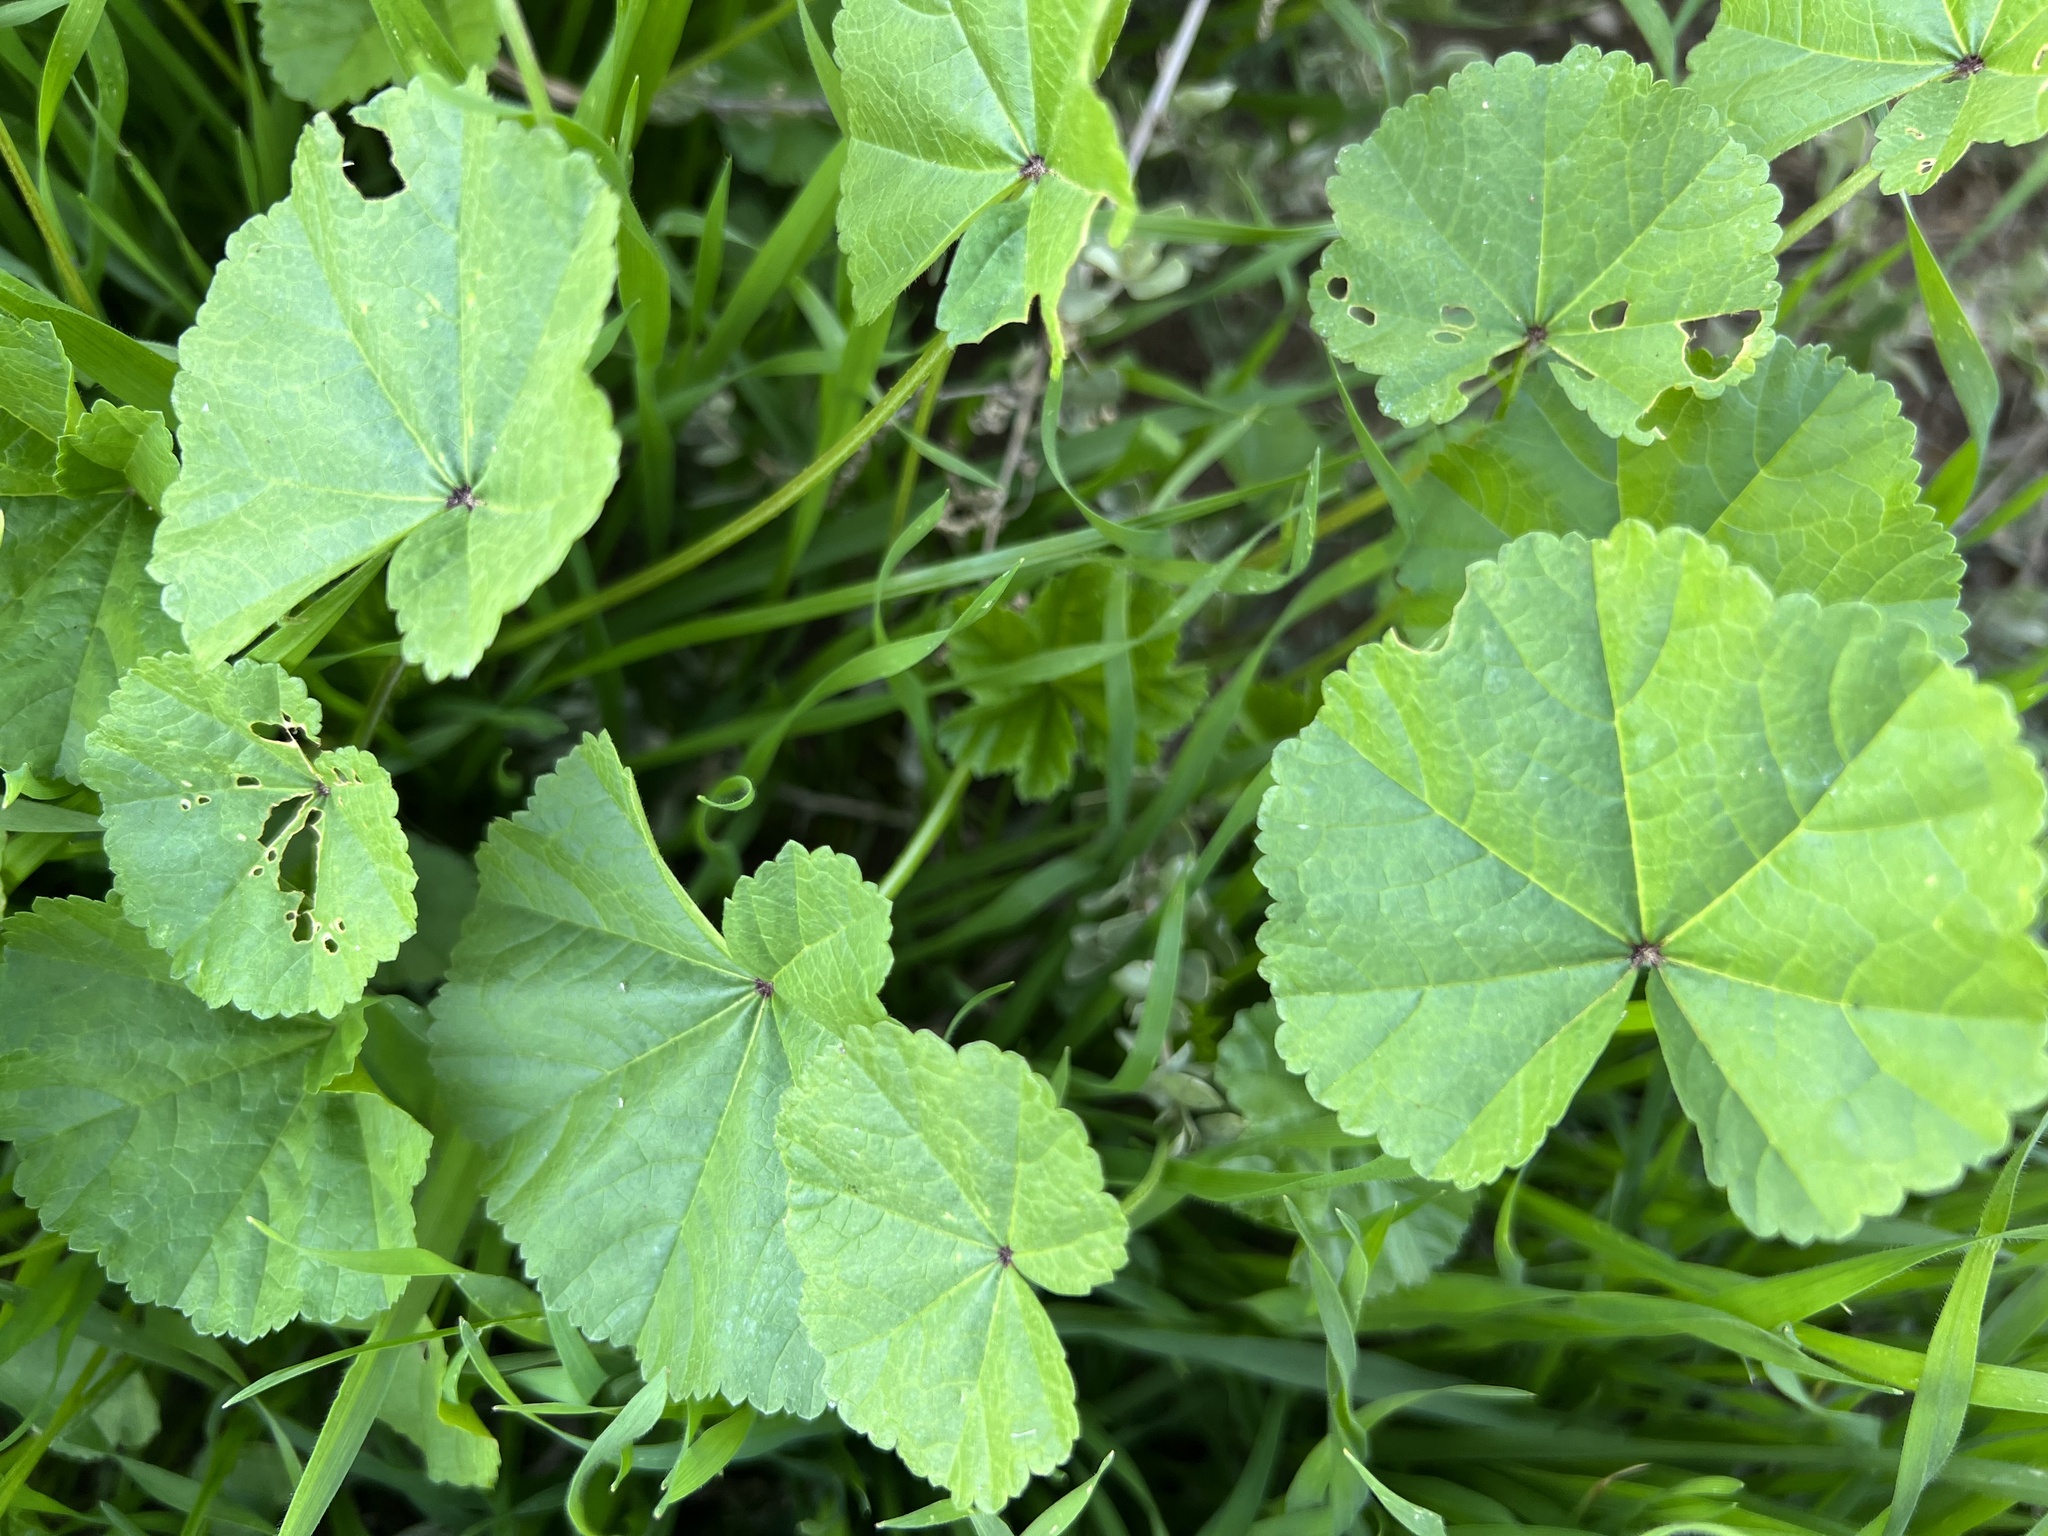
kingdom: Plantae
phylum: Tracheophyta
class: Magnoliopsida
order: Malvales
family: Malvaceae
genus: Malva
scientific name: Malva
